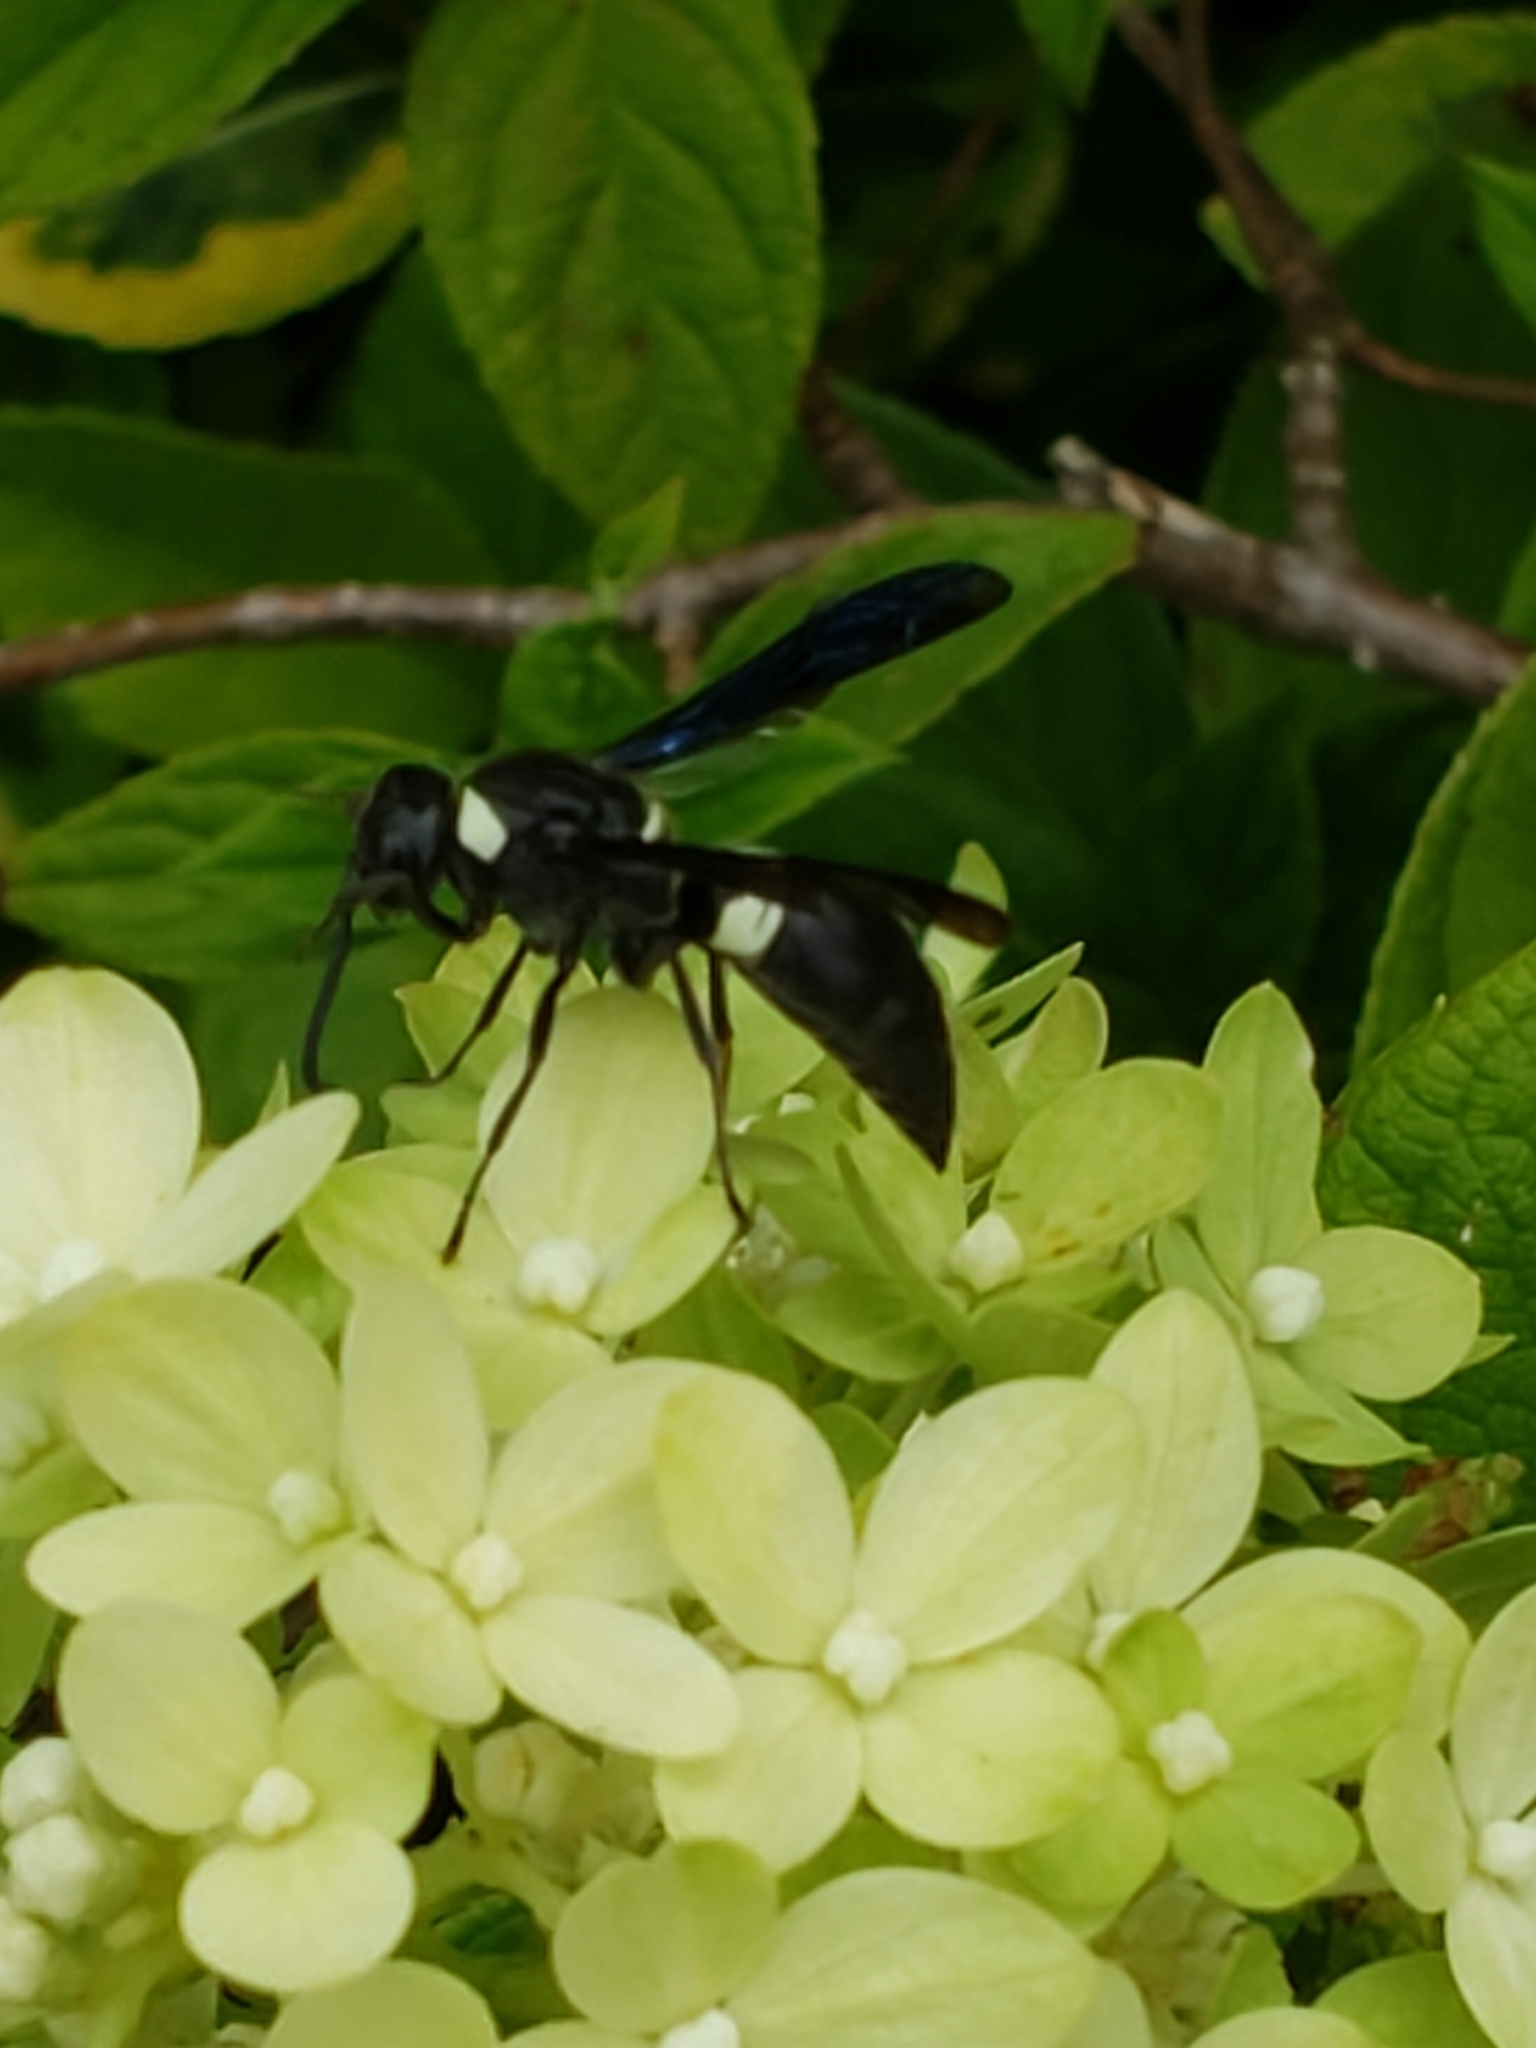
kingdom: Animalia
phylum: Arthropoda
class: Insecta
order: Hymenoptera
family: Eumenidae
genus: Monobia
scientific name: Monobia quadridens
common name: Four-toothed mason wasp
